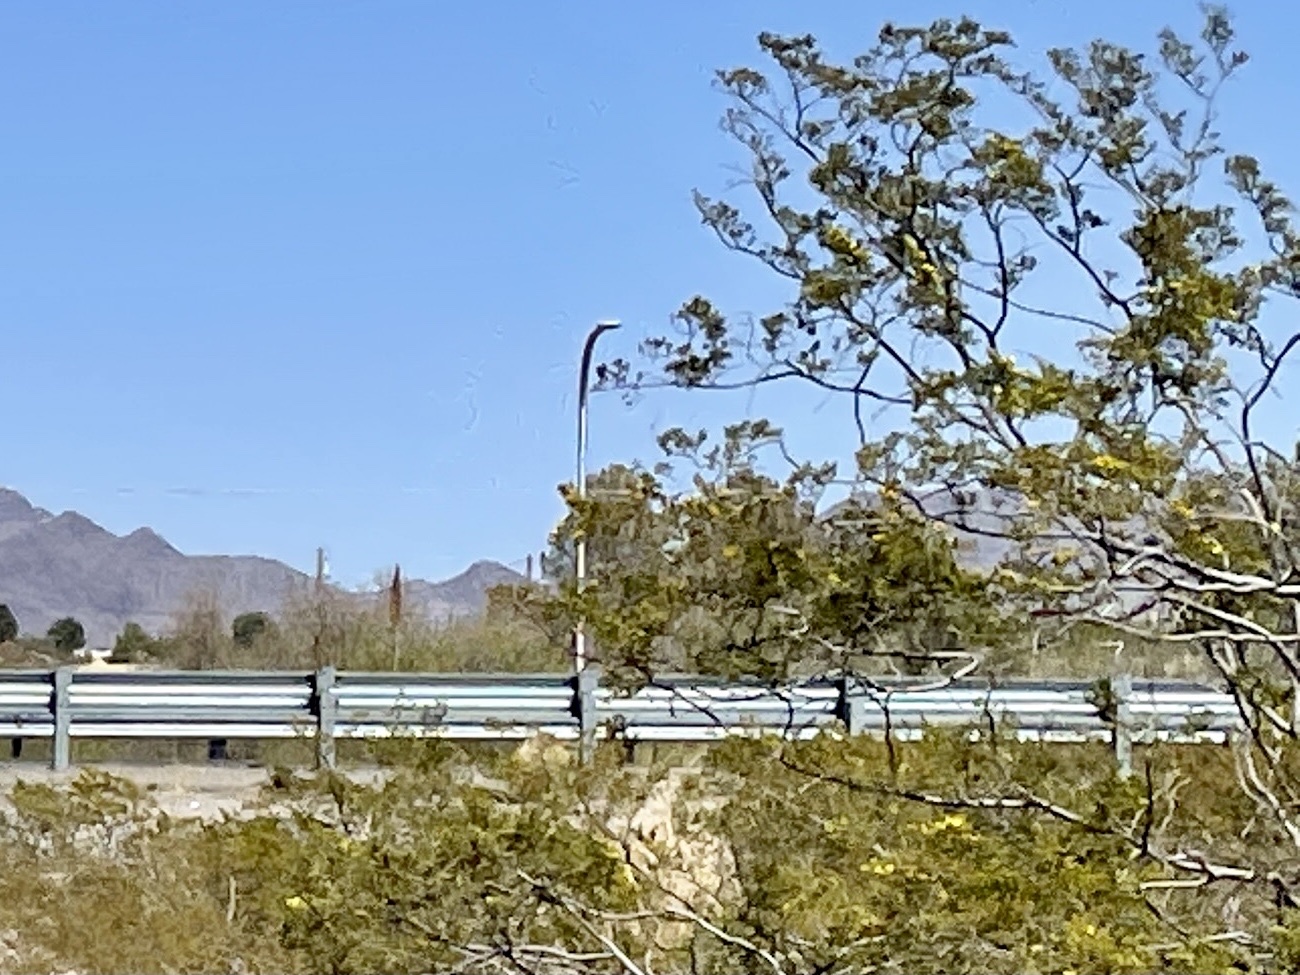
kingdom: Plantae
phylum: Tracheophyta
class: Magnoliopsida
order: Zygophyllales
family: Zygophyllaceae
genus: Larrea
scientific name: Larrea tridentata
